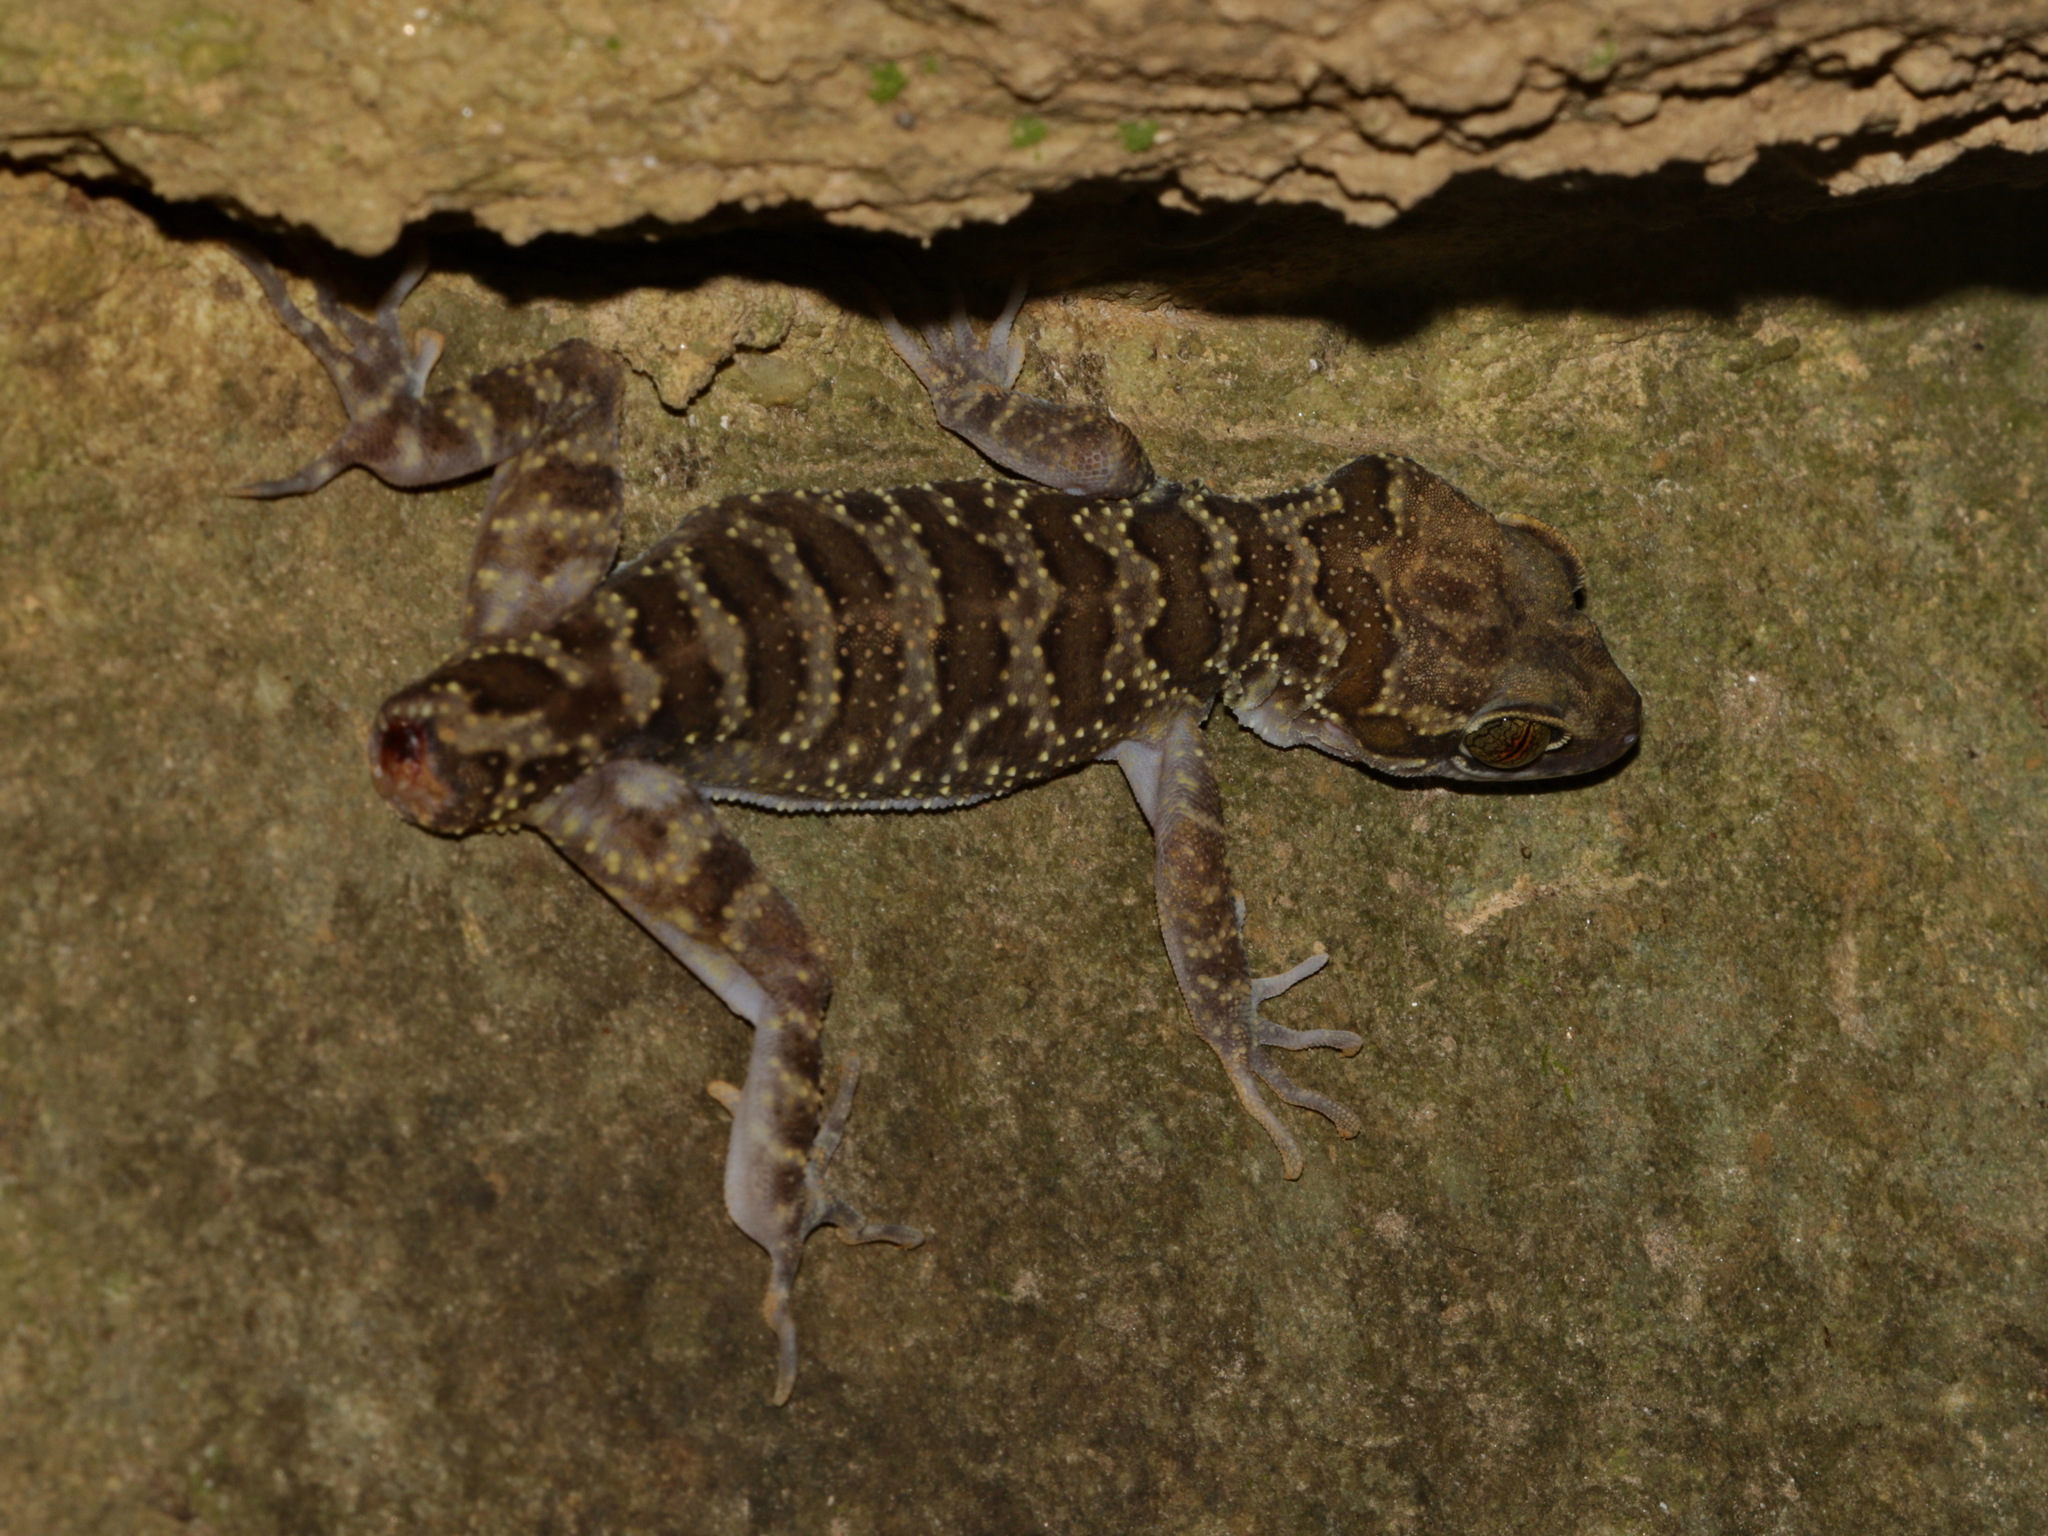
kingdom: Animalia
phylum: Chordata
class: Squamata
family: Gekkonidae
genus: Cyrtodactylus
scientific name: Cyrtodactylus inthanon
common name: Doi inthanon bent-toed gecko
